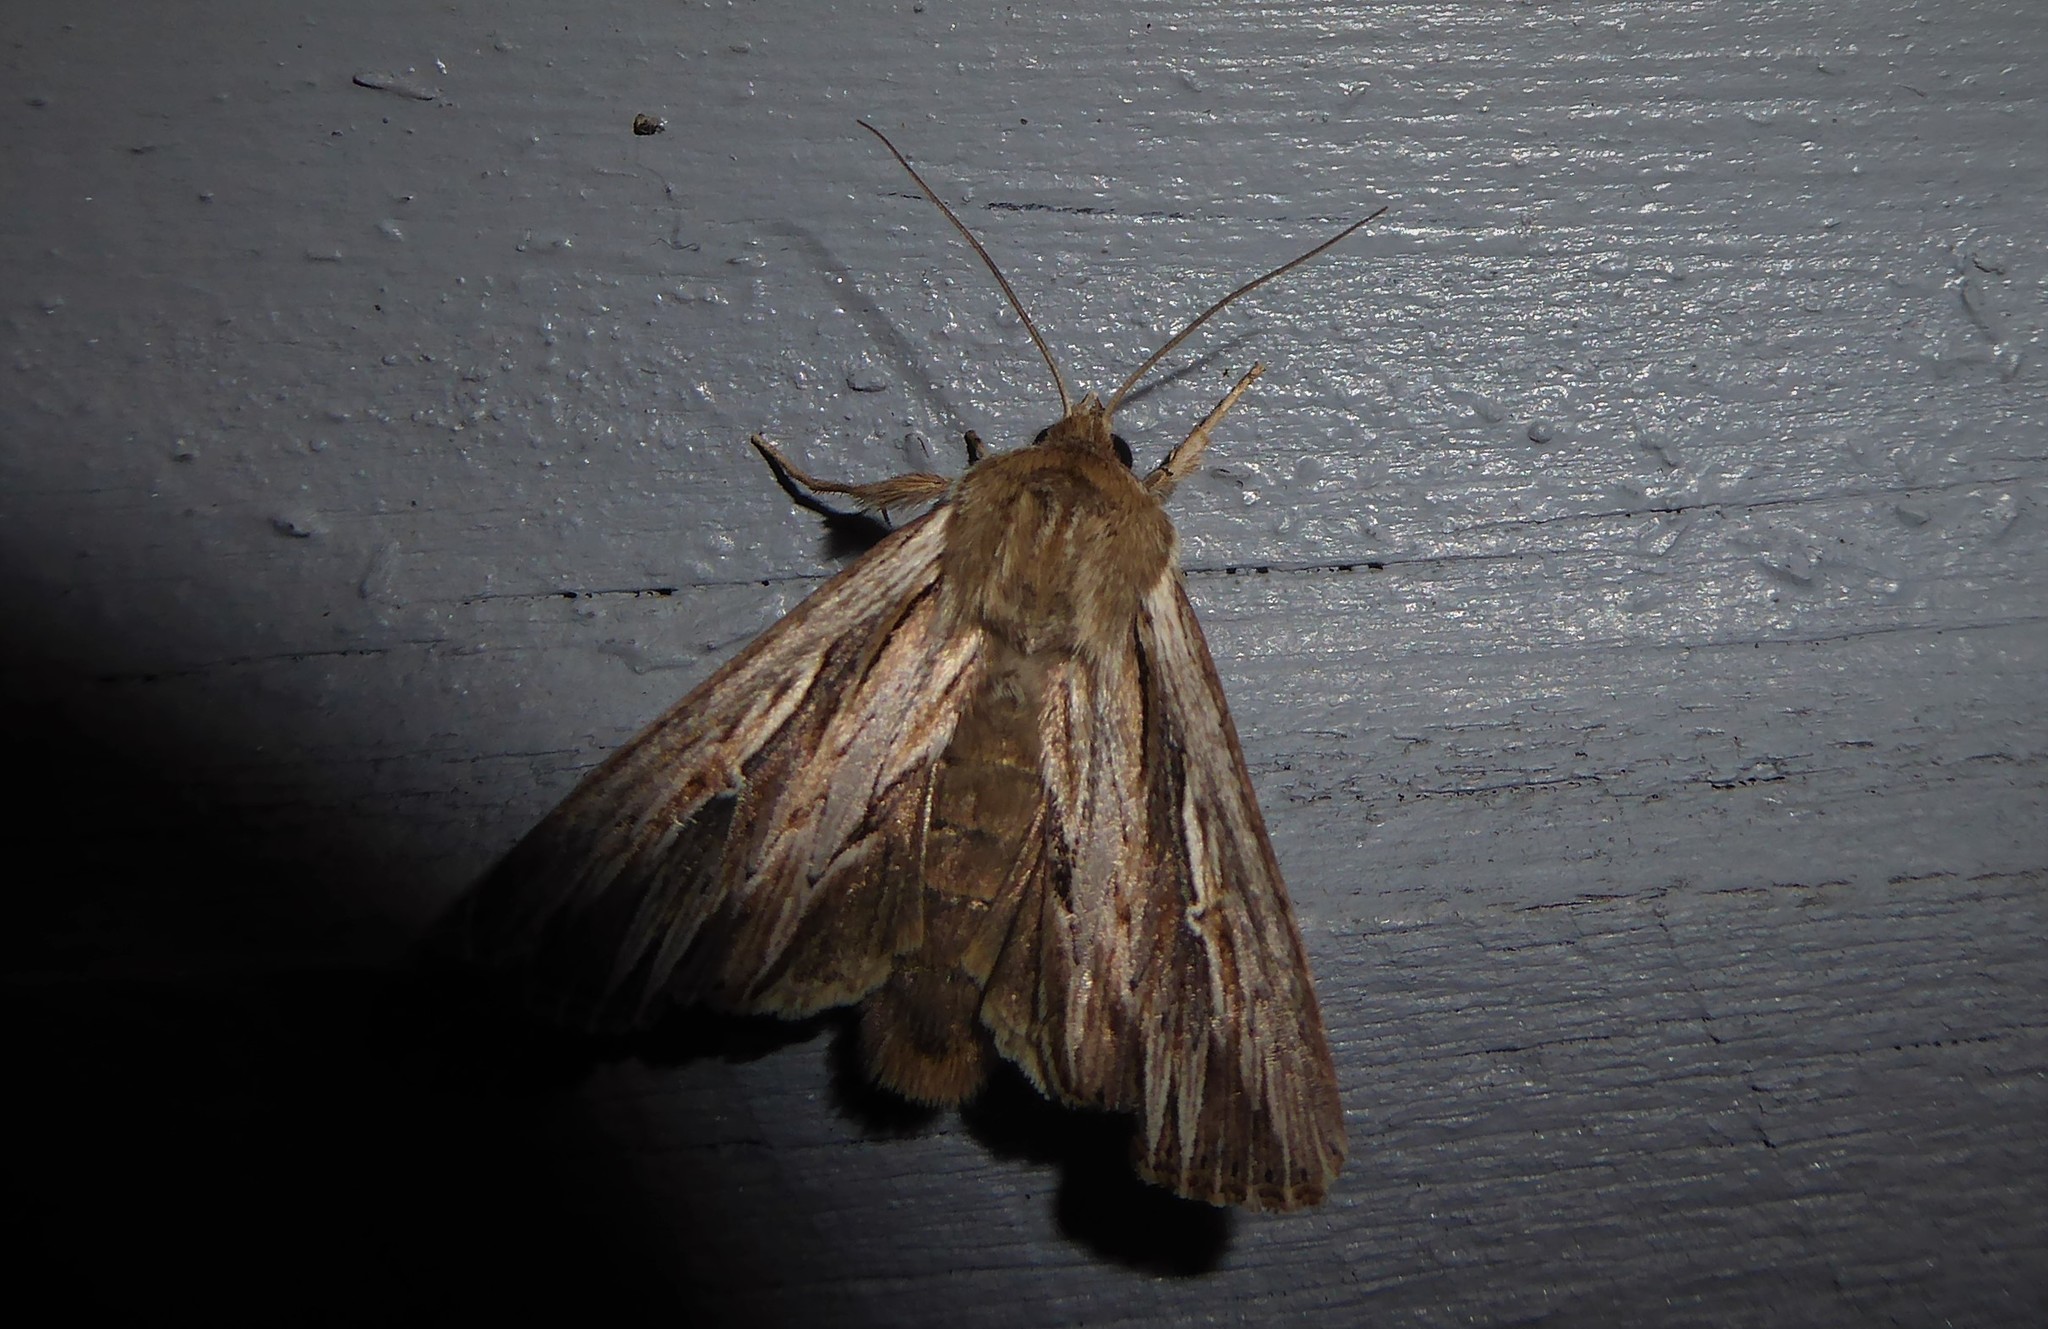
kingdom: Animalia
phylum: Arthropoda
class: Insecta
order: Lepidoptera
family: Noctuidae
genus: Persectania
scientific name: Persectania aversa
